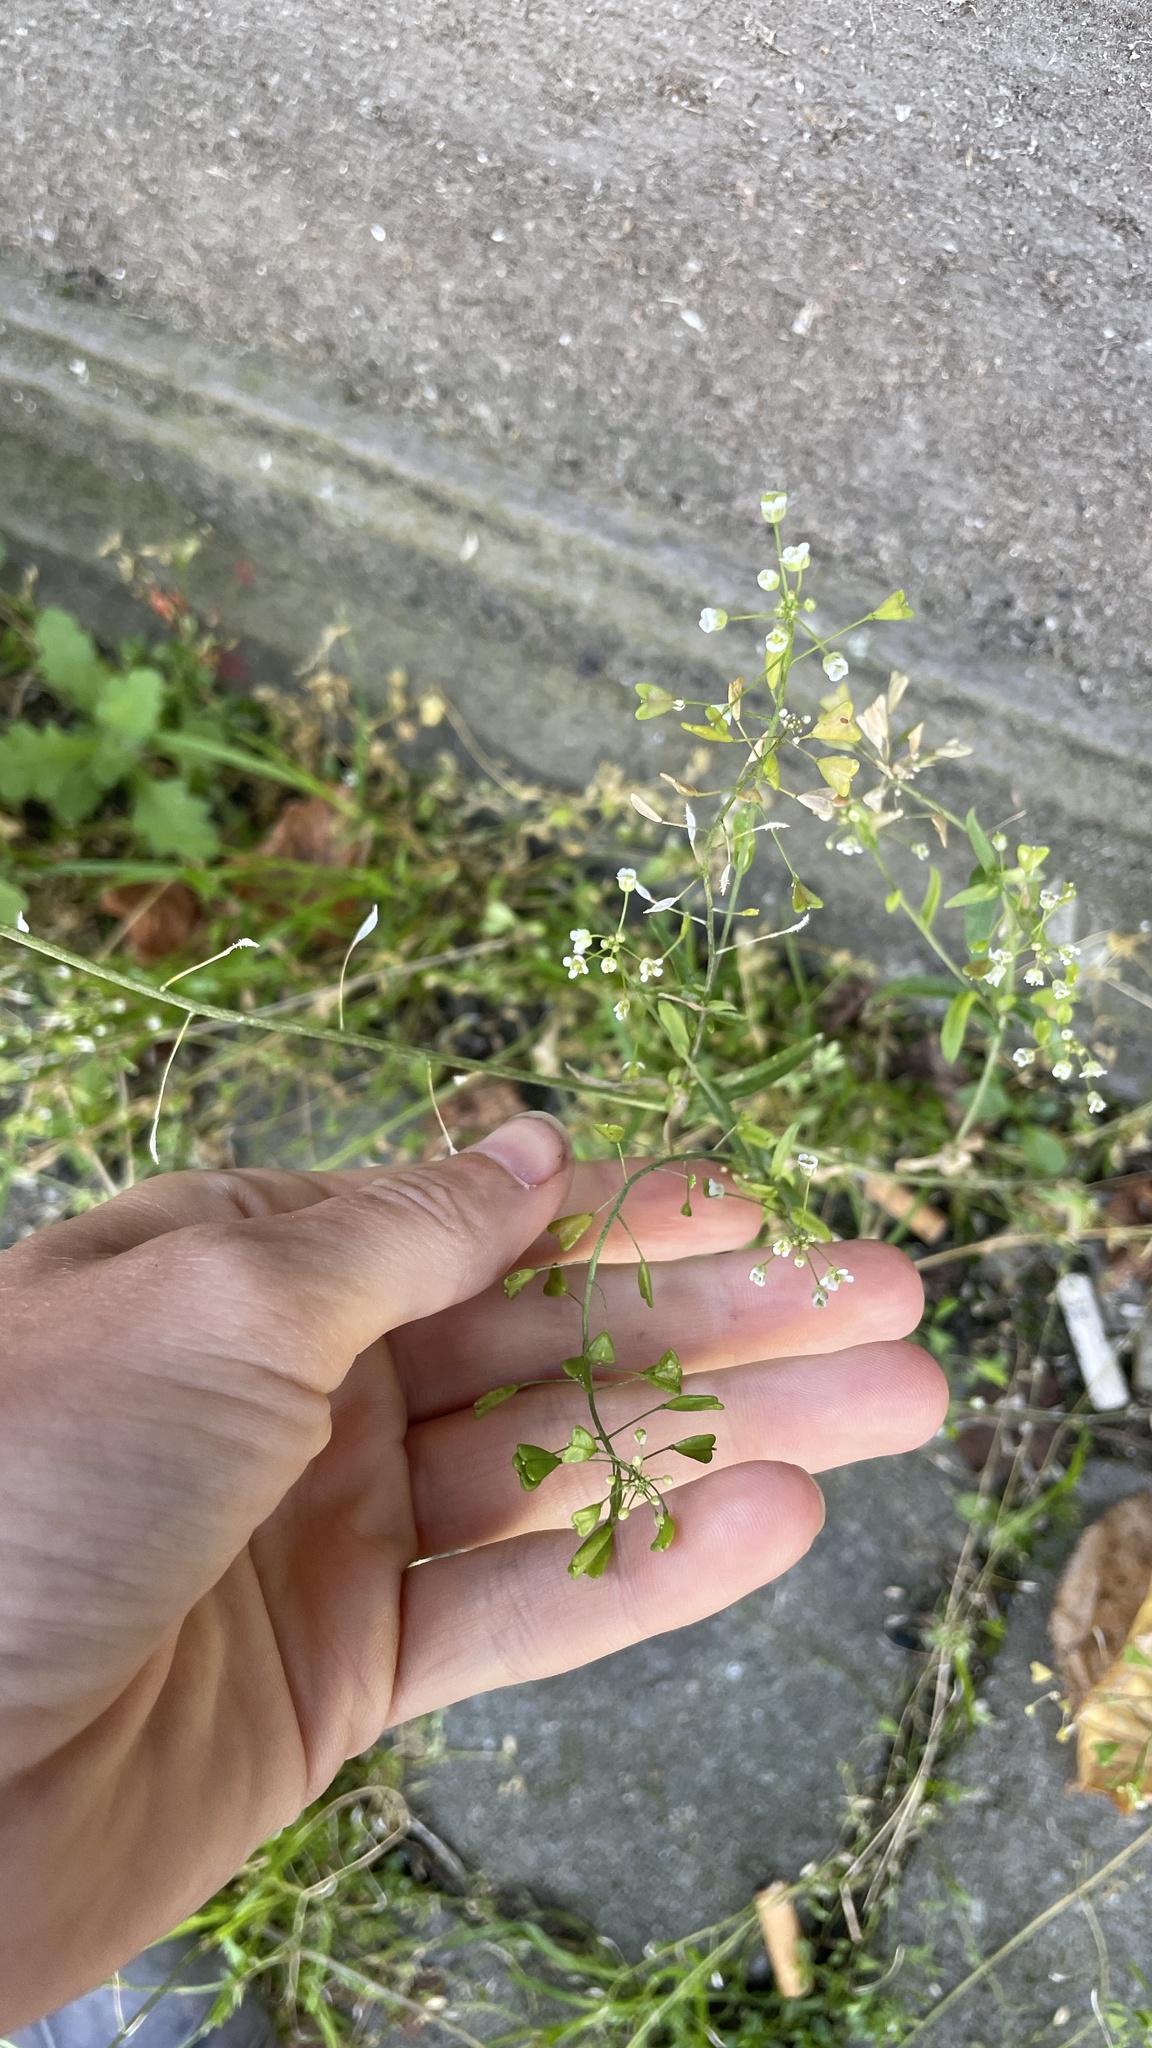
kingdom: Plantae
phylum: Tracheophyta
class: Magnoliopsida
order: Brassicales
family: Brassicaceae
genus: Capsella
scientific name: Capsella bursa-pastoris
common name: Shepherd's purse
